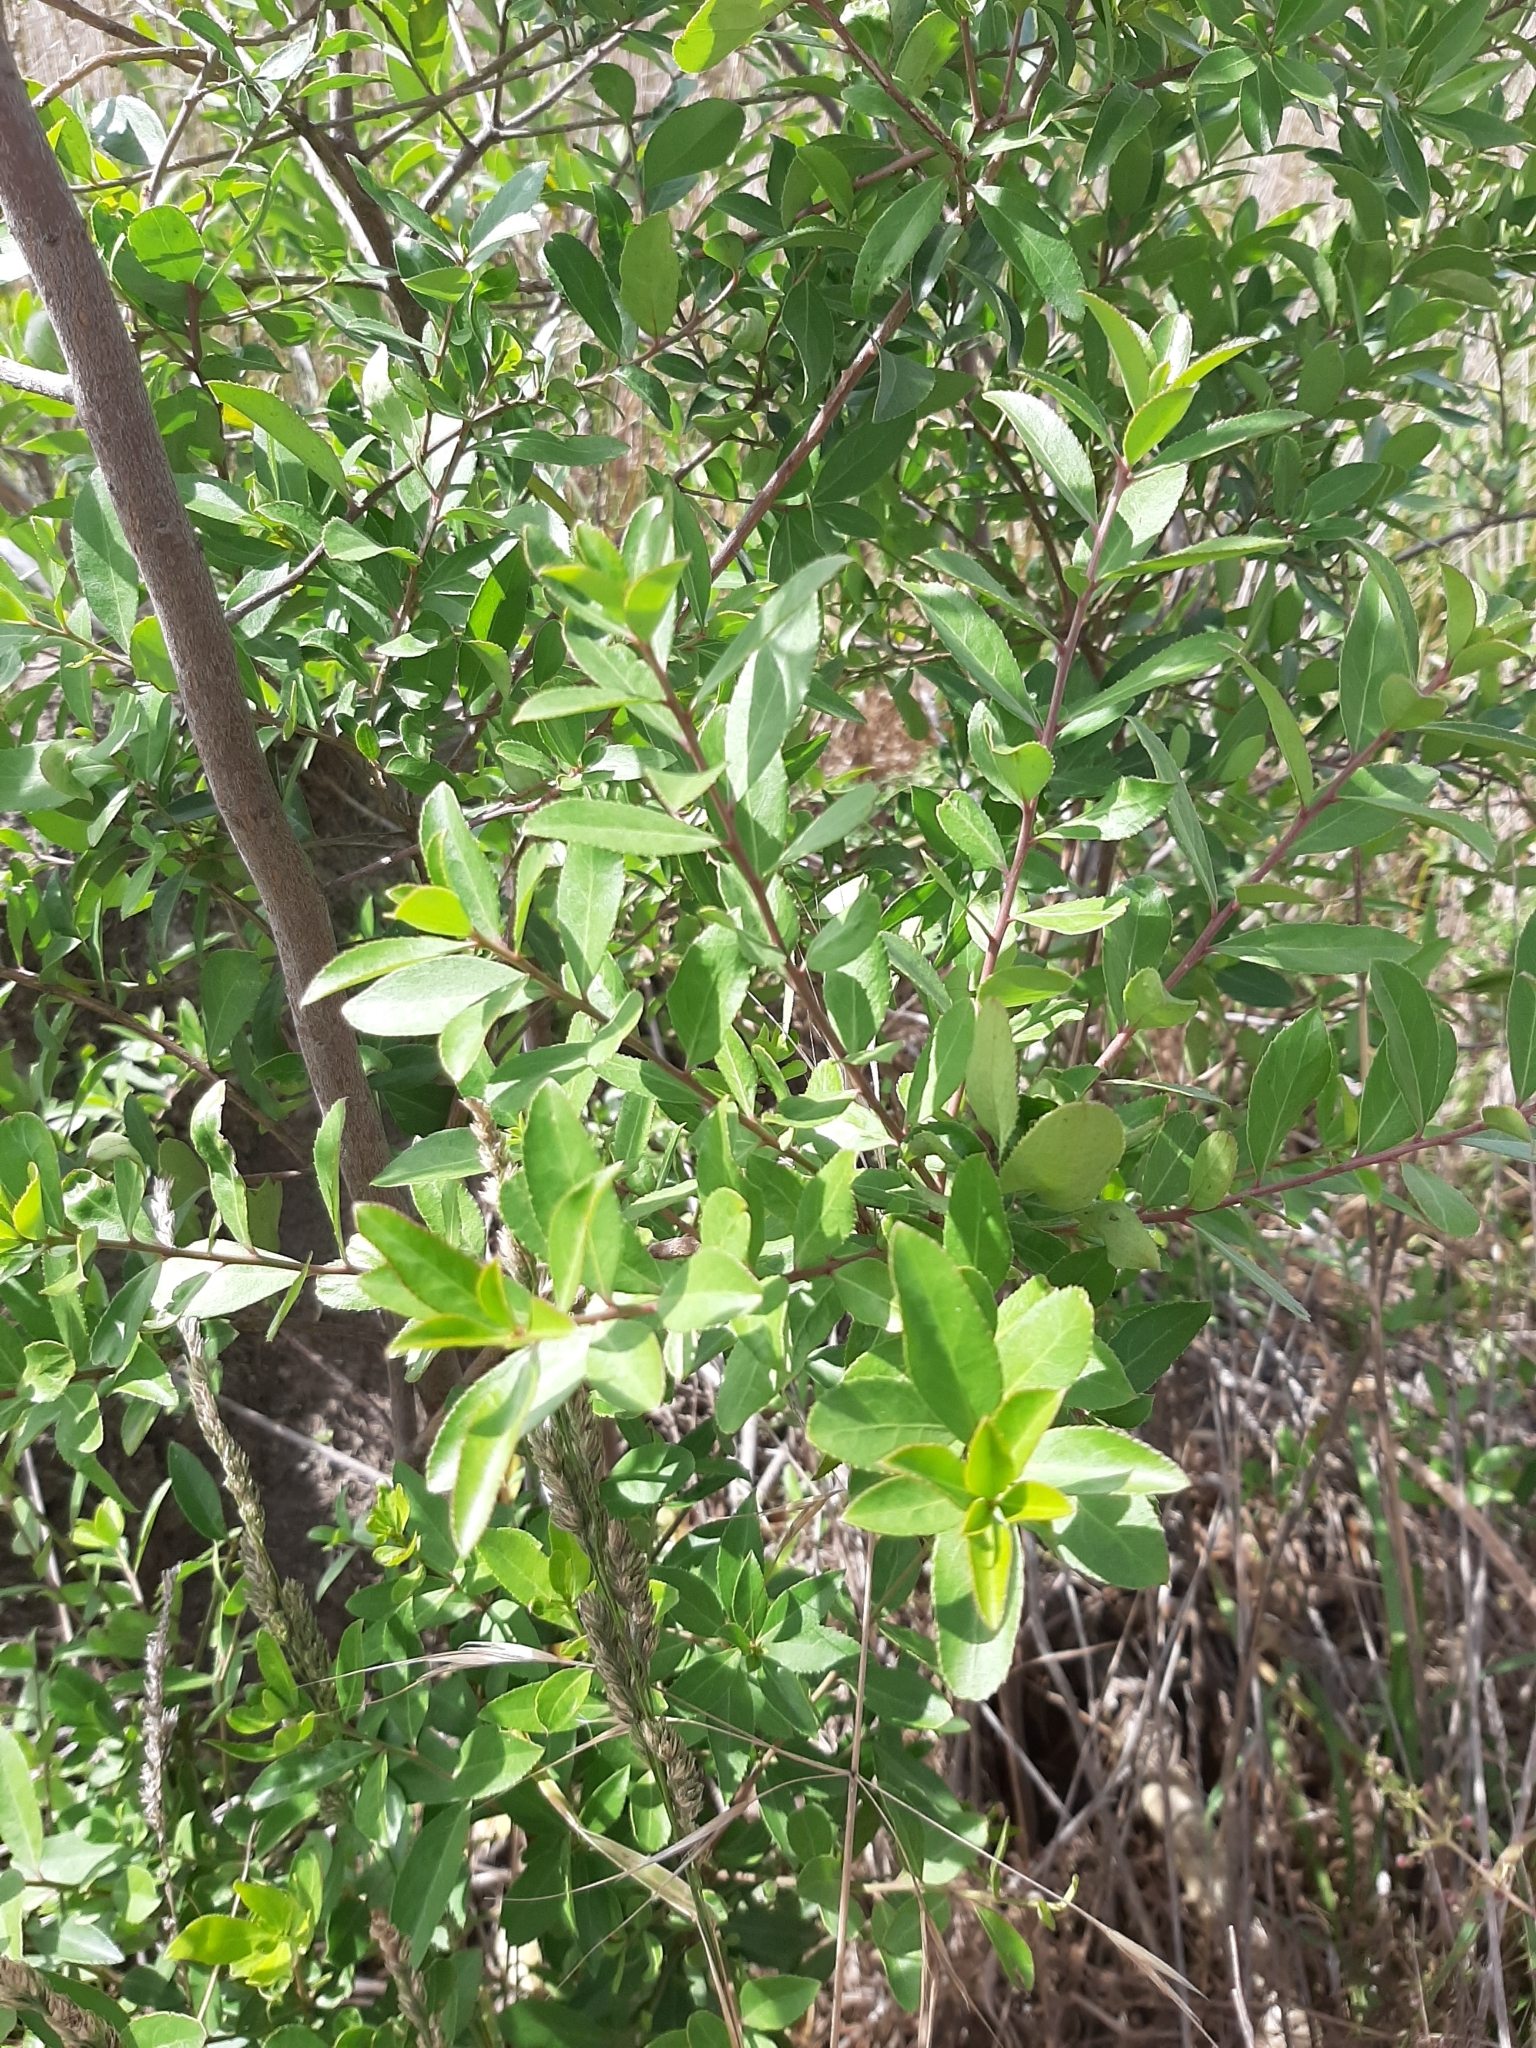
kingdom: Plantae
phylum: Tracheophyta
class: Magnoliopsida
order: Celastrales
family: Celastraceae
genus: Maytenus
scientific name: Maytenus boaria
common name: Mayten
